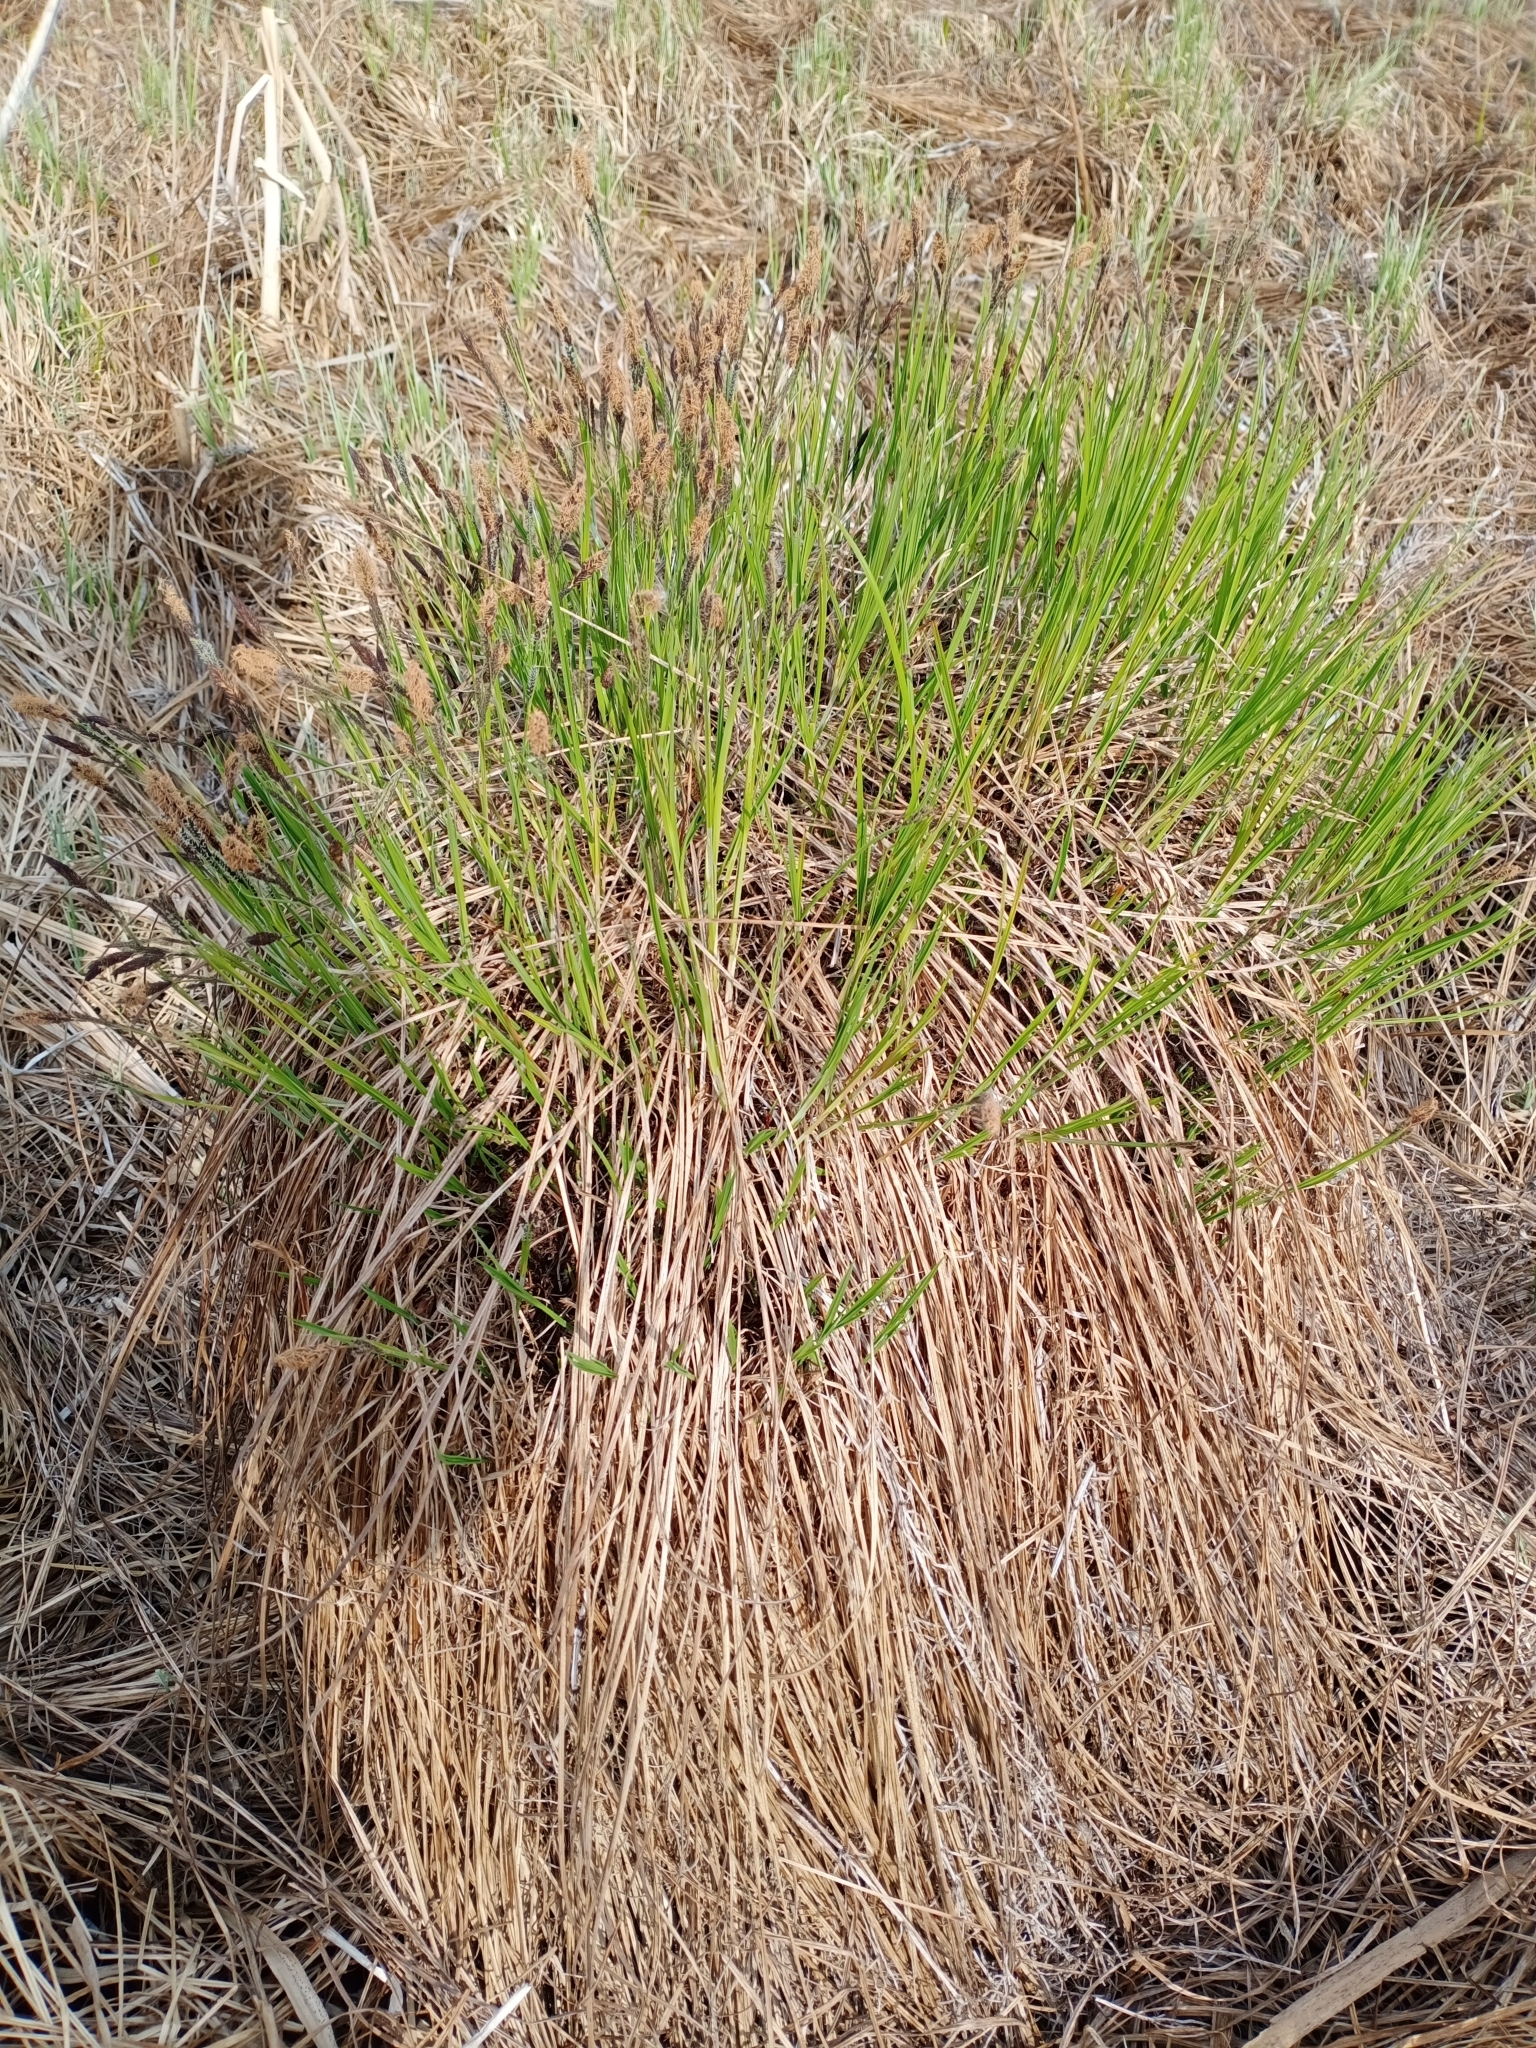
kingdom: Plantae
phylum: Tracheophyta
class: Liliopsida
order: Poales
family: Cyperaceae
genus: Carex
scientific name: Carex cespitosa
